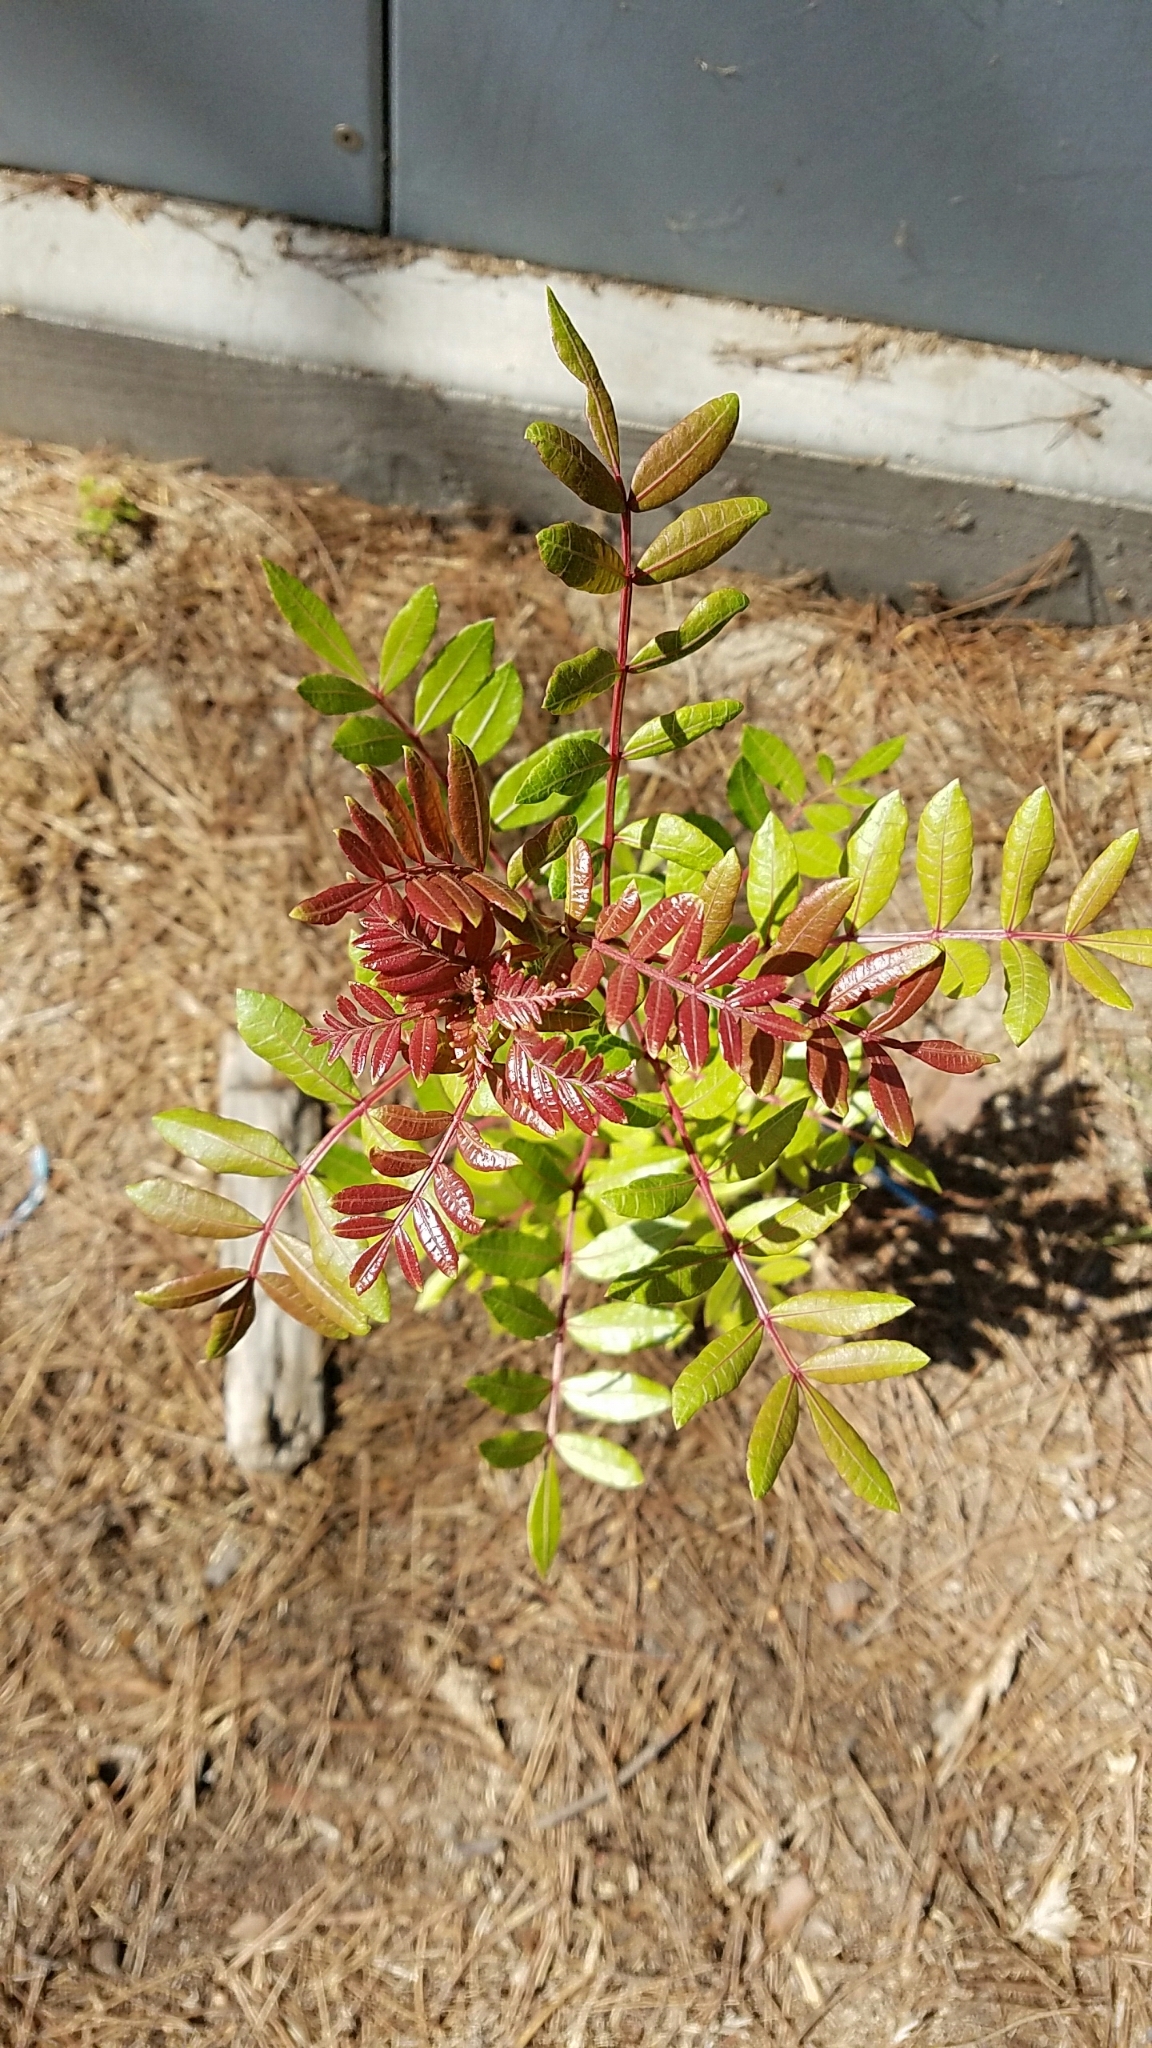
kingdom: Plantae
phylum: Tracheophyta
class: Magnoliopsida
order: Sapindales
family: Anacardiaceae
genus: Schinus
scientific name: Schinus terebinthifolia
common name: Brazilian peppertree
